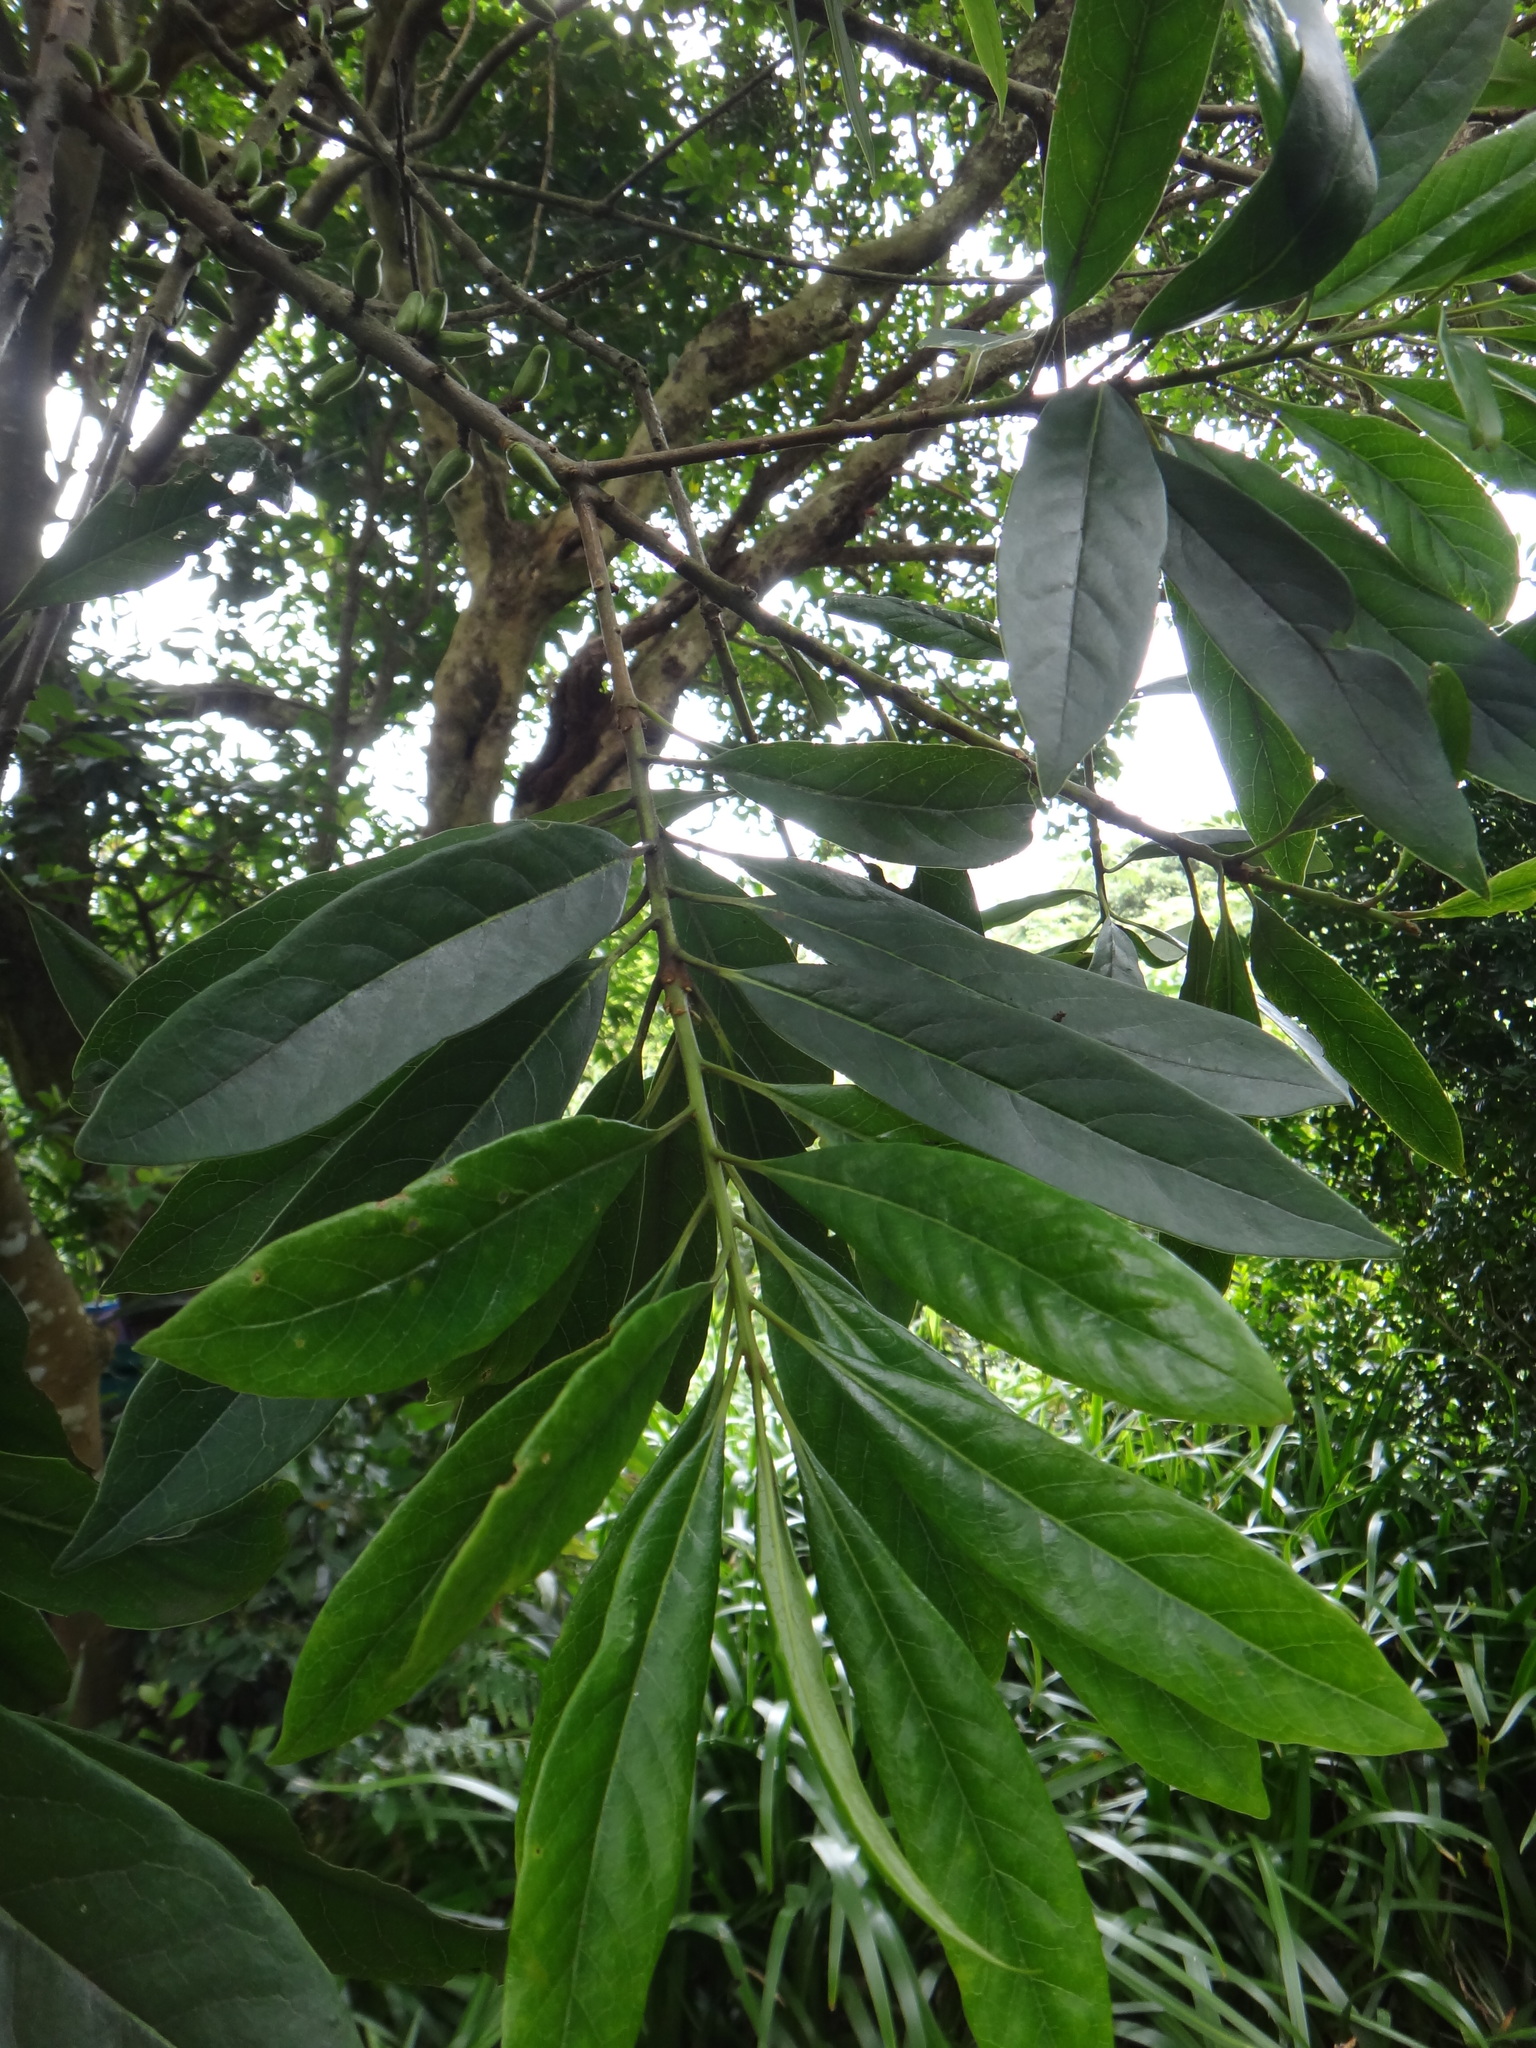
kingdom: Plantae
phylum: Tracheophyta
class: Magnoliopsida
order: Ericales
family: Symplocaceae
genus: Symplocos
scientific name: Symplocos glauca
